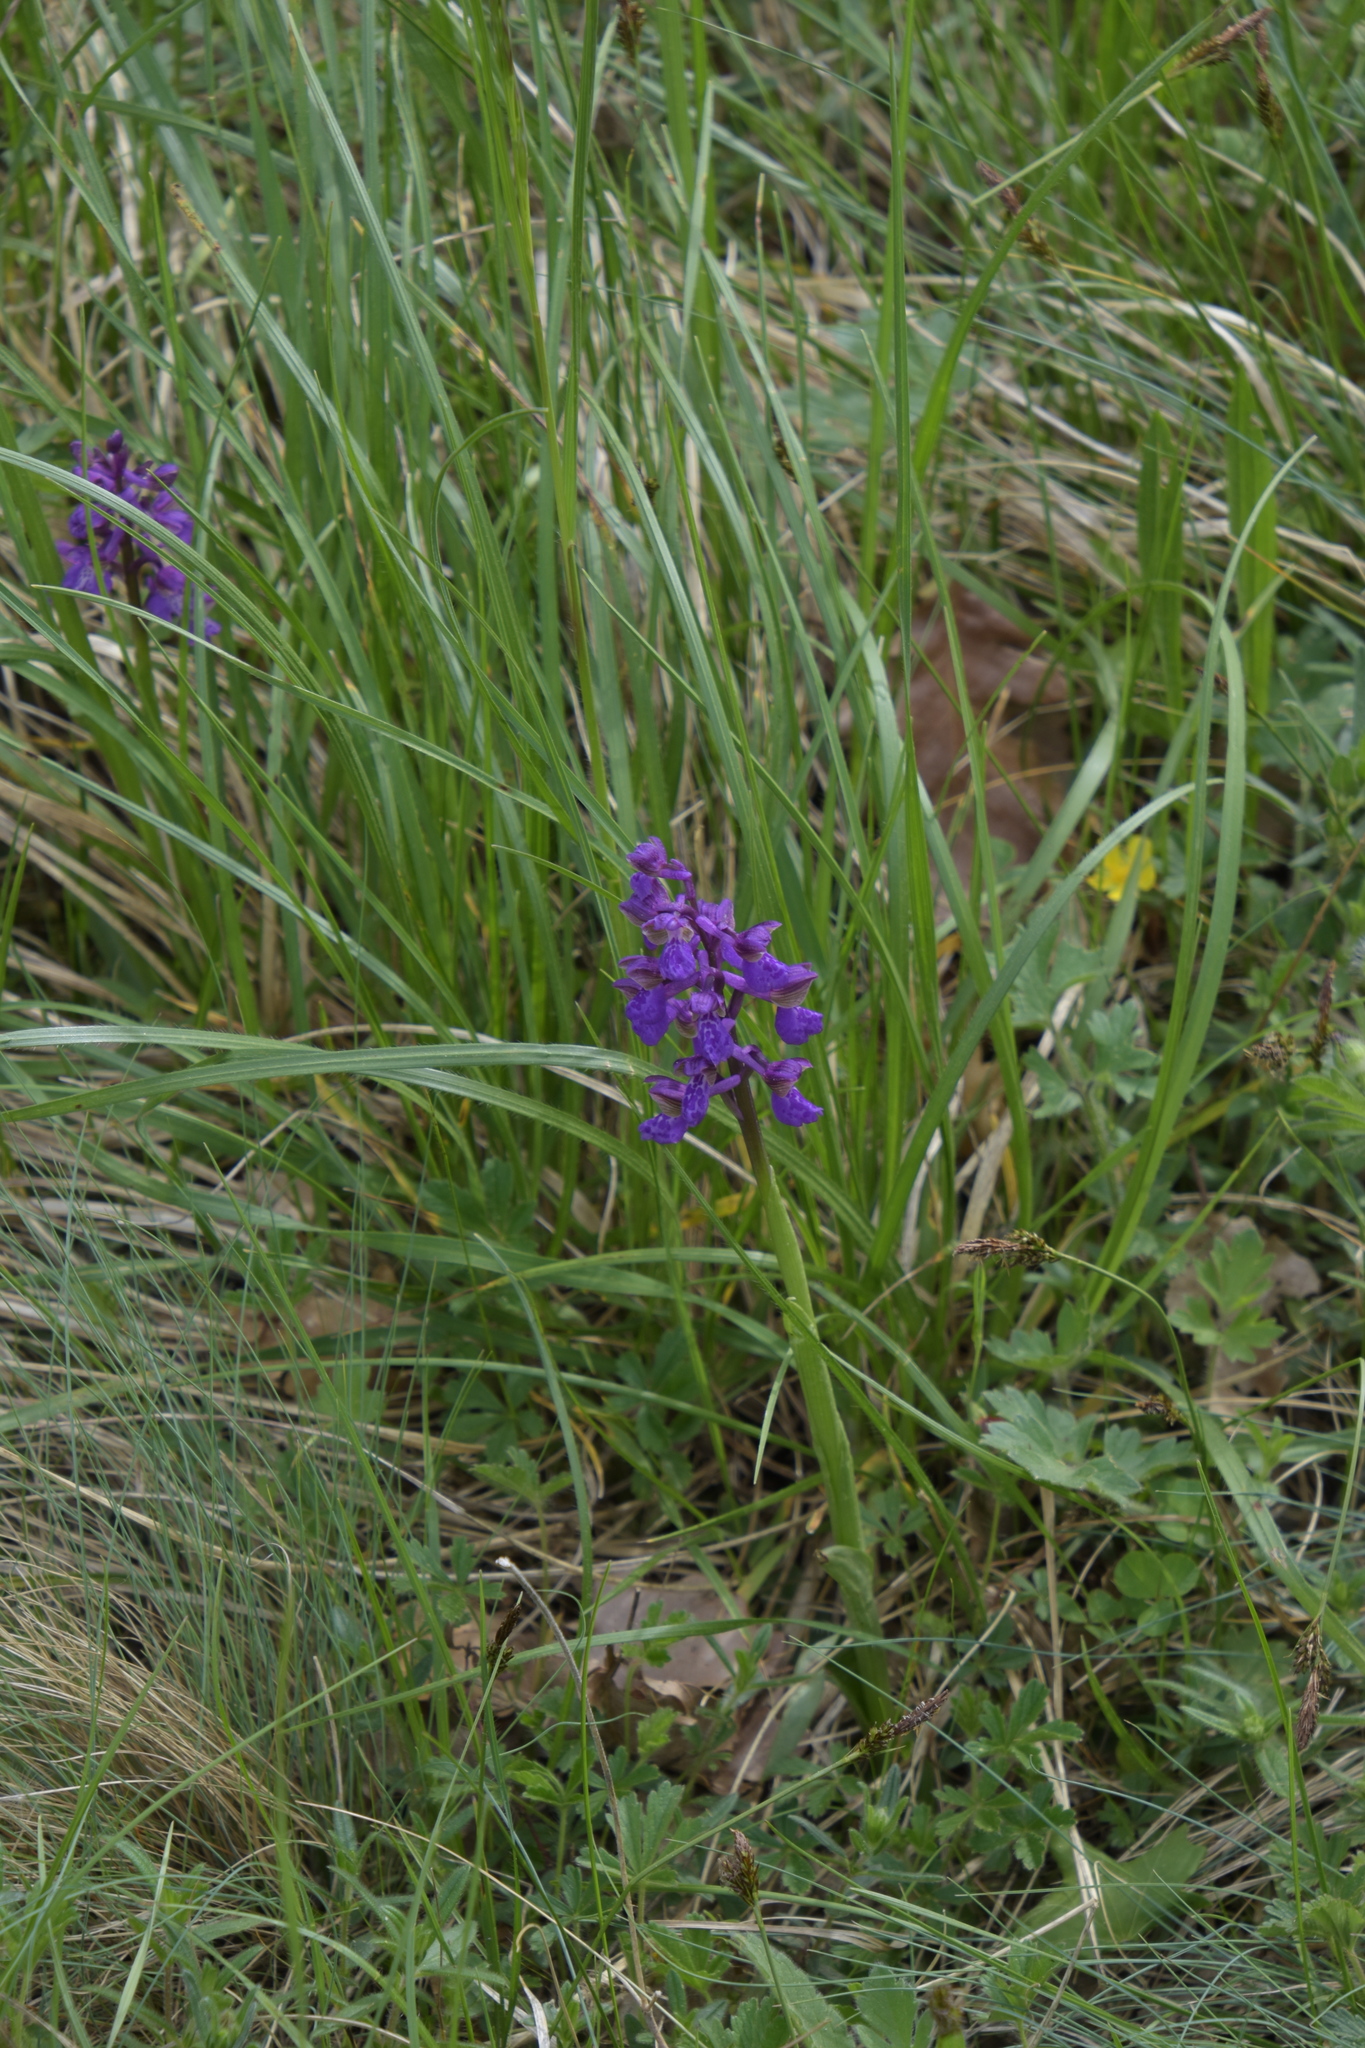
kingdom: Plantae
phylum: Tracheophyta
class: Liliopsida
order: Asparagales
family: Orchidaceae
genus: Anacamptis
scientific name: Anacamptis morio
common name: Green-winged orchid
